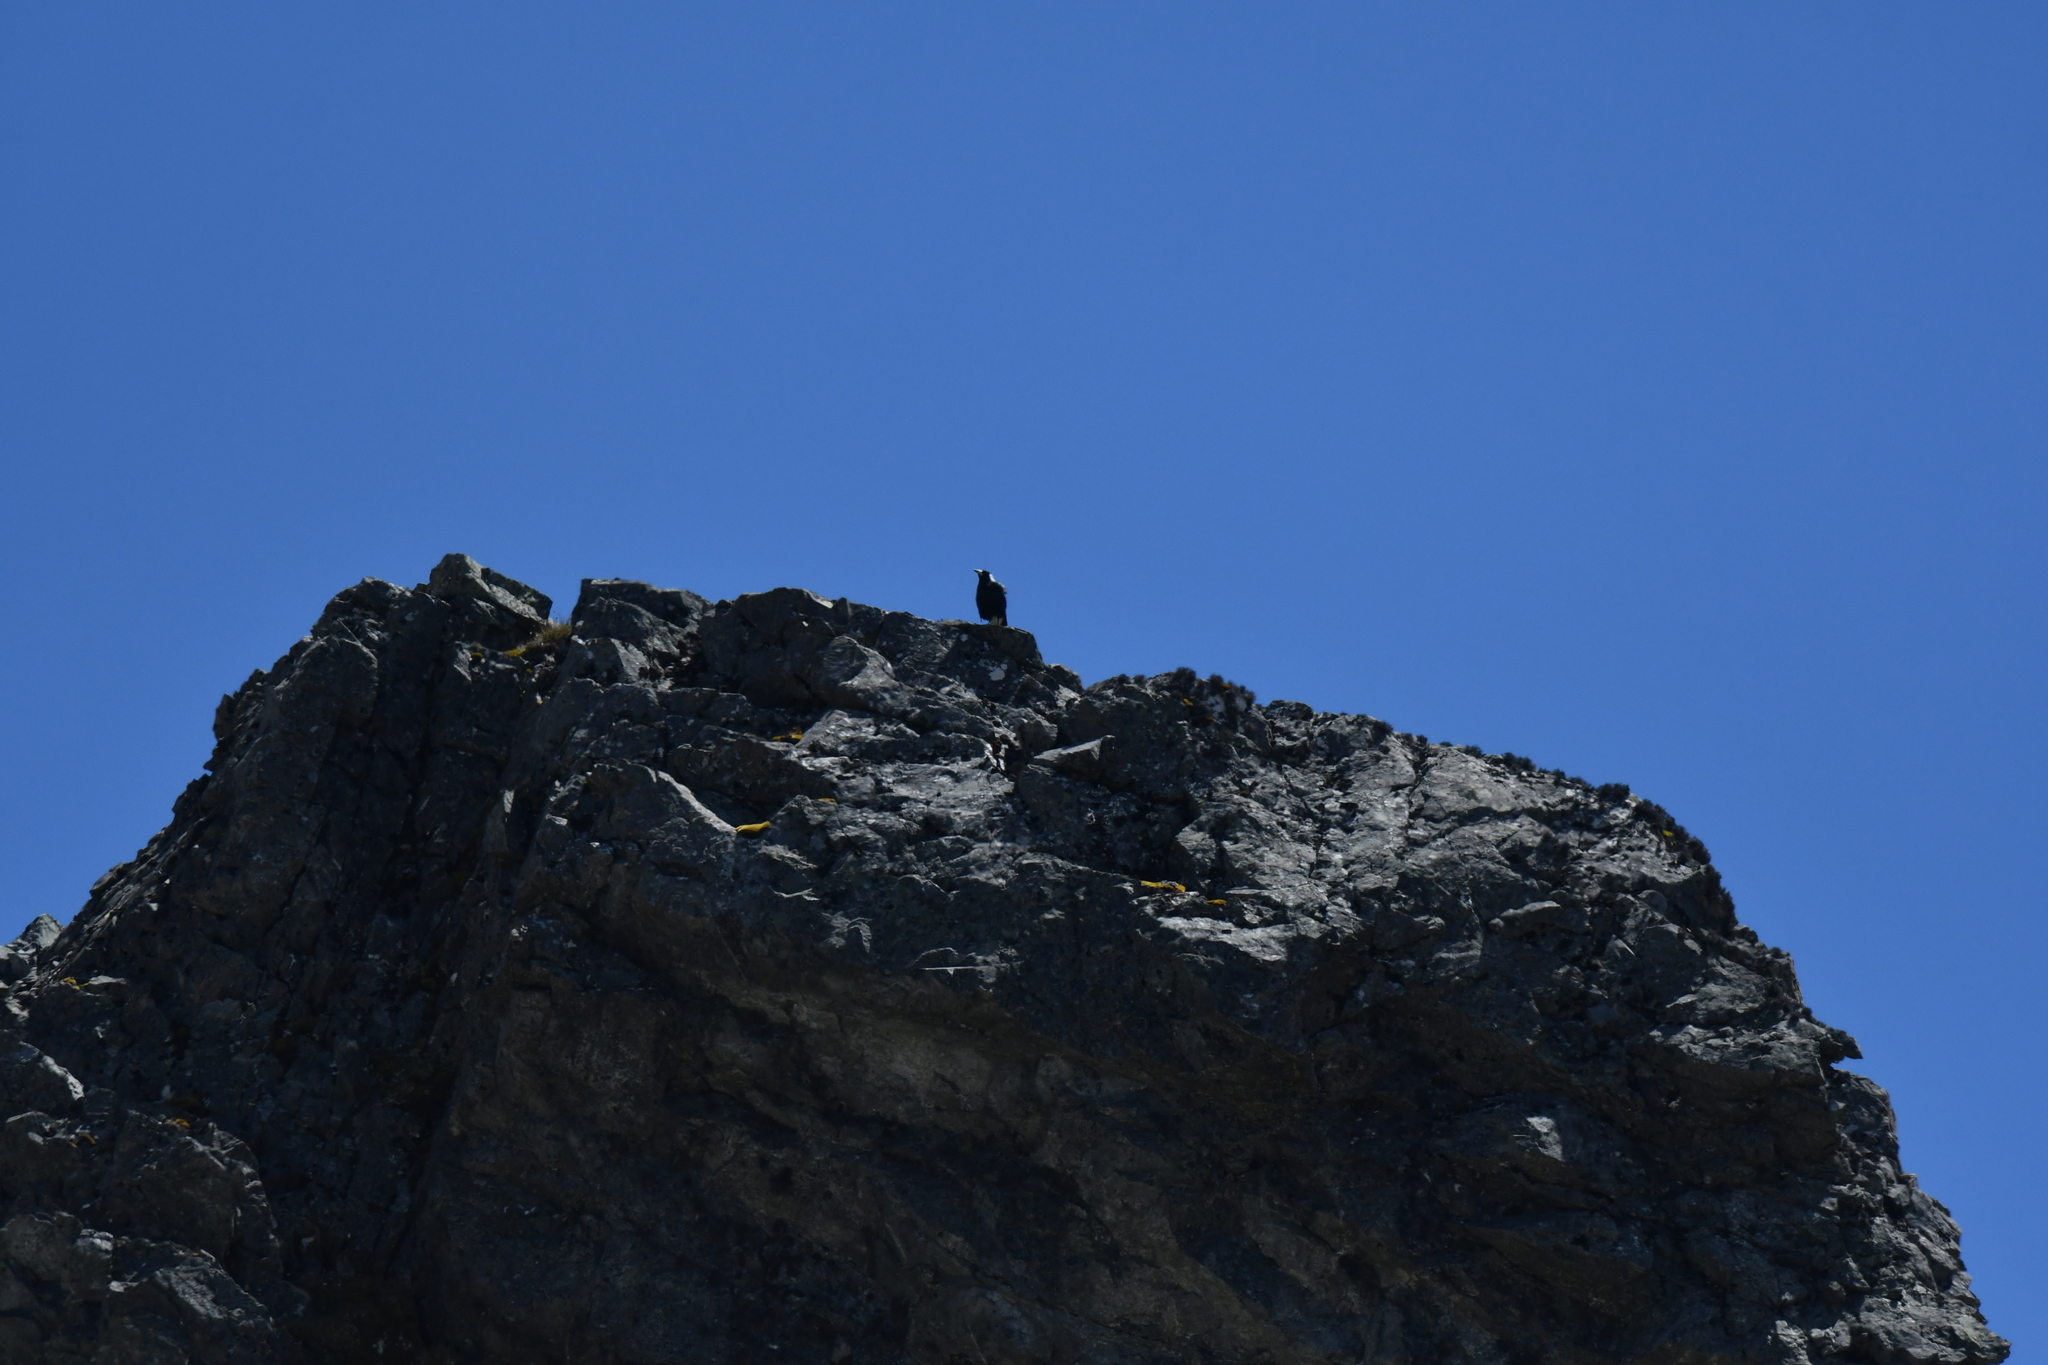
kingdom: Animalia
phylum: Chordata
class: Aves
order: Passeriformes
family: Cracticidae
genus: Gymnorhina
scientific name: Gymnorhina tibicen
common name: Australian magpie
